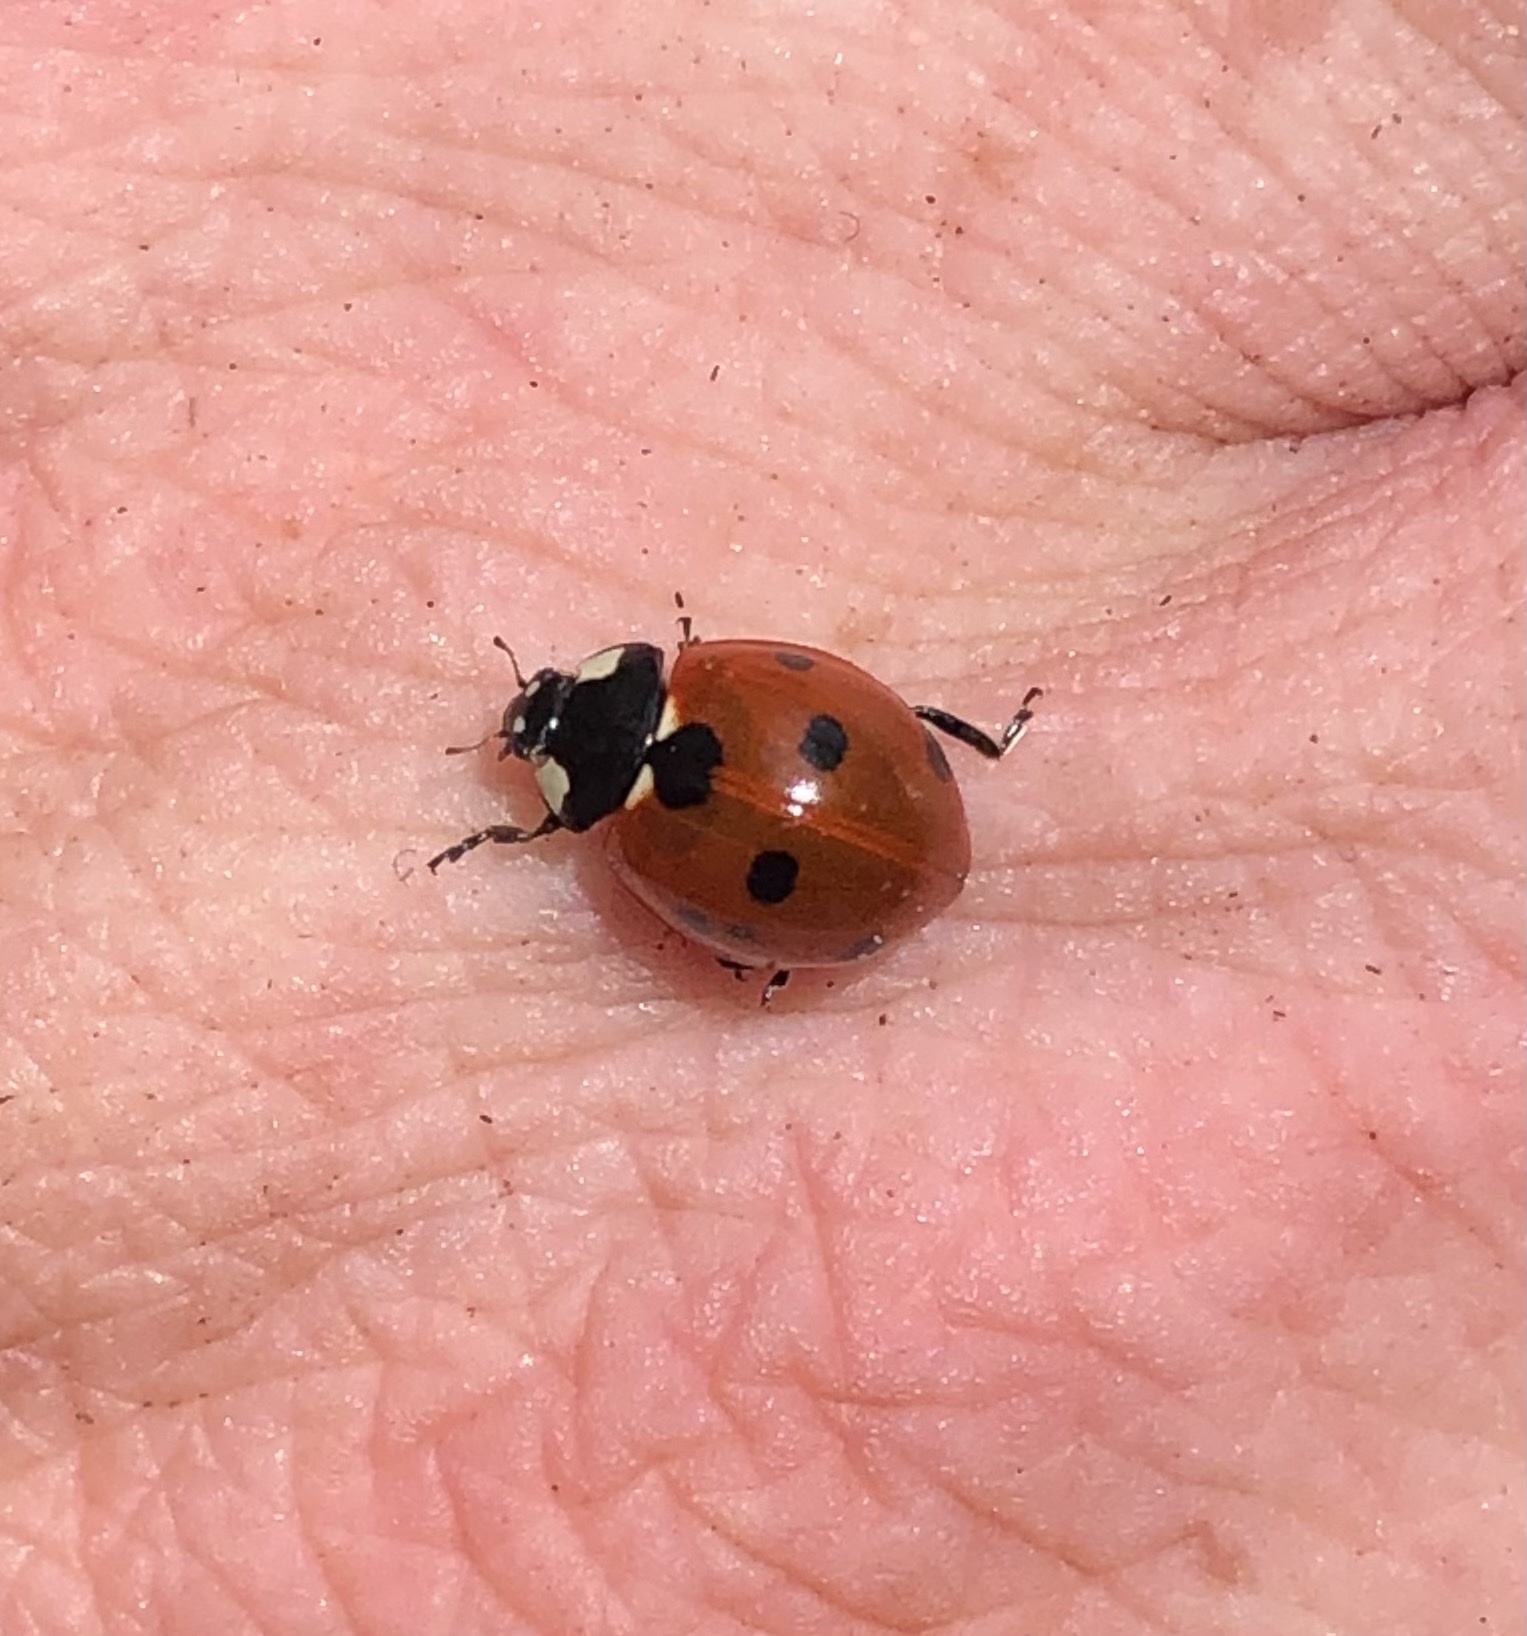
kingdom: Animalia
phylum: Arthropoda
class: Insecta
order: Coleoptera
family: Coccinellidae
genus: Coccinella
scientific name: Coccinella septempunctata
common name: Sevenspotted lady beetle
